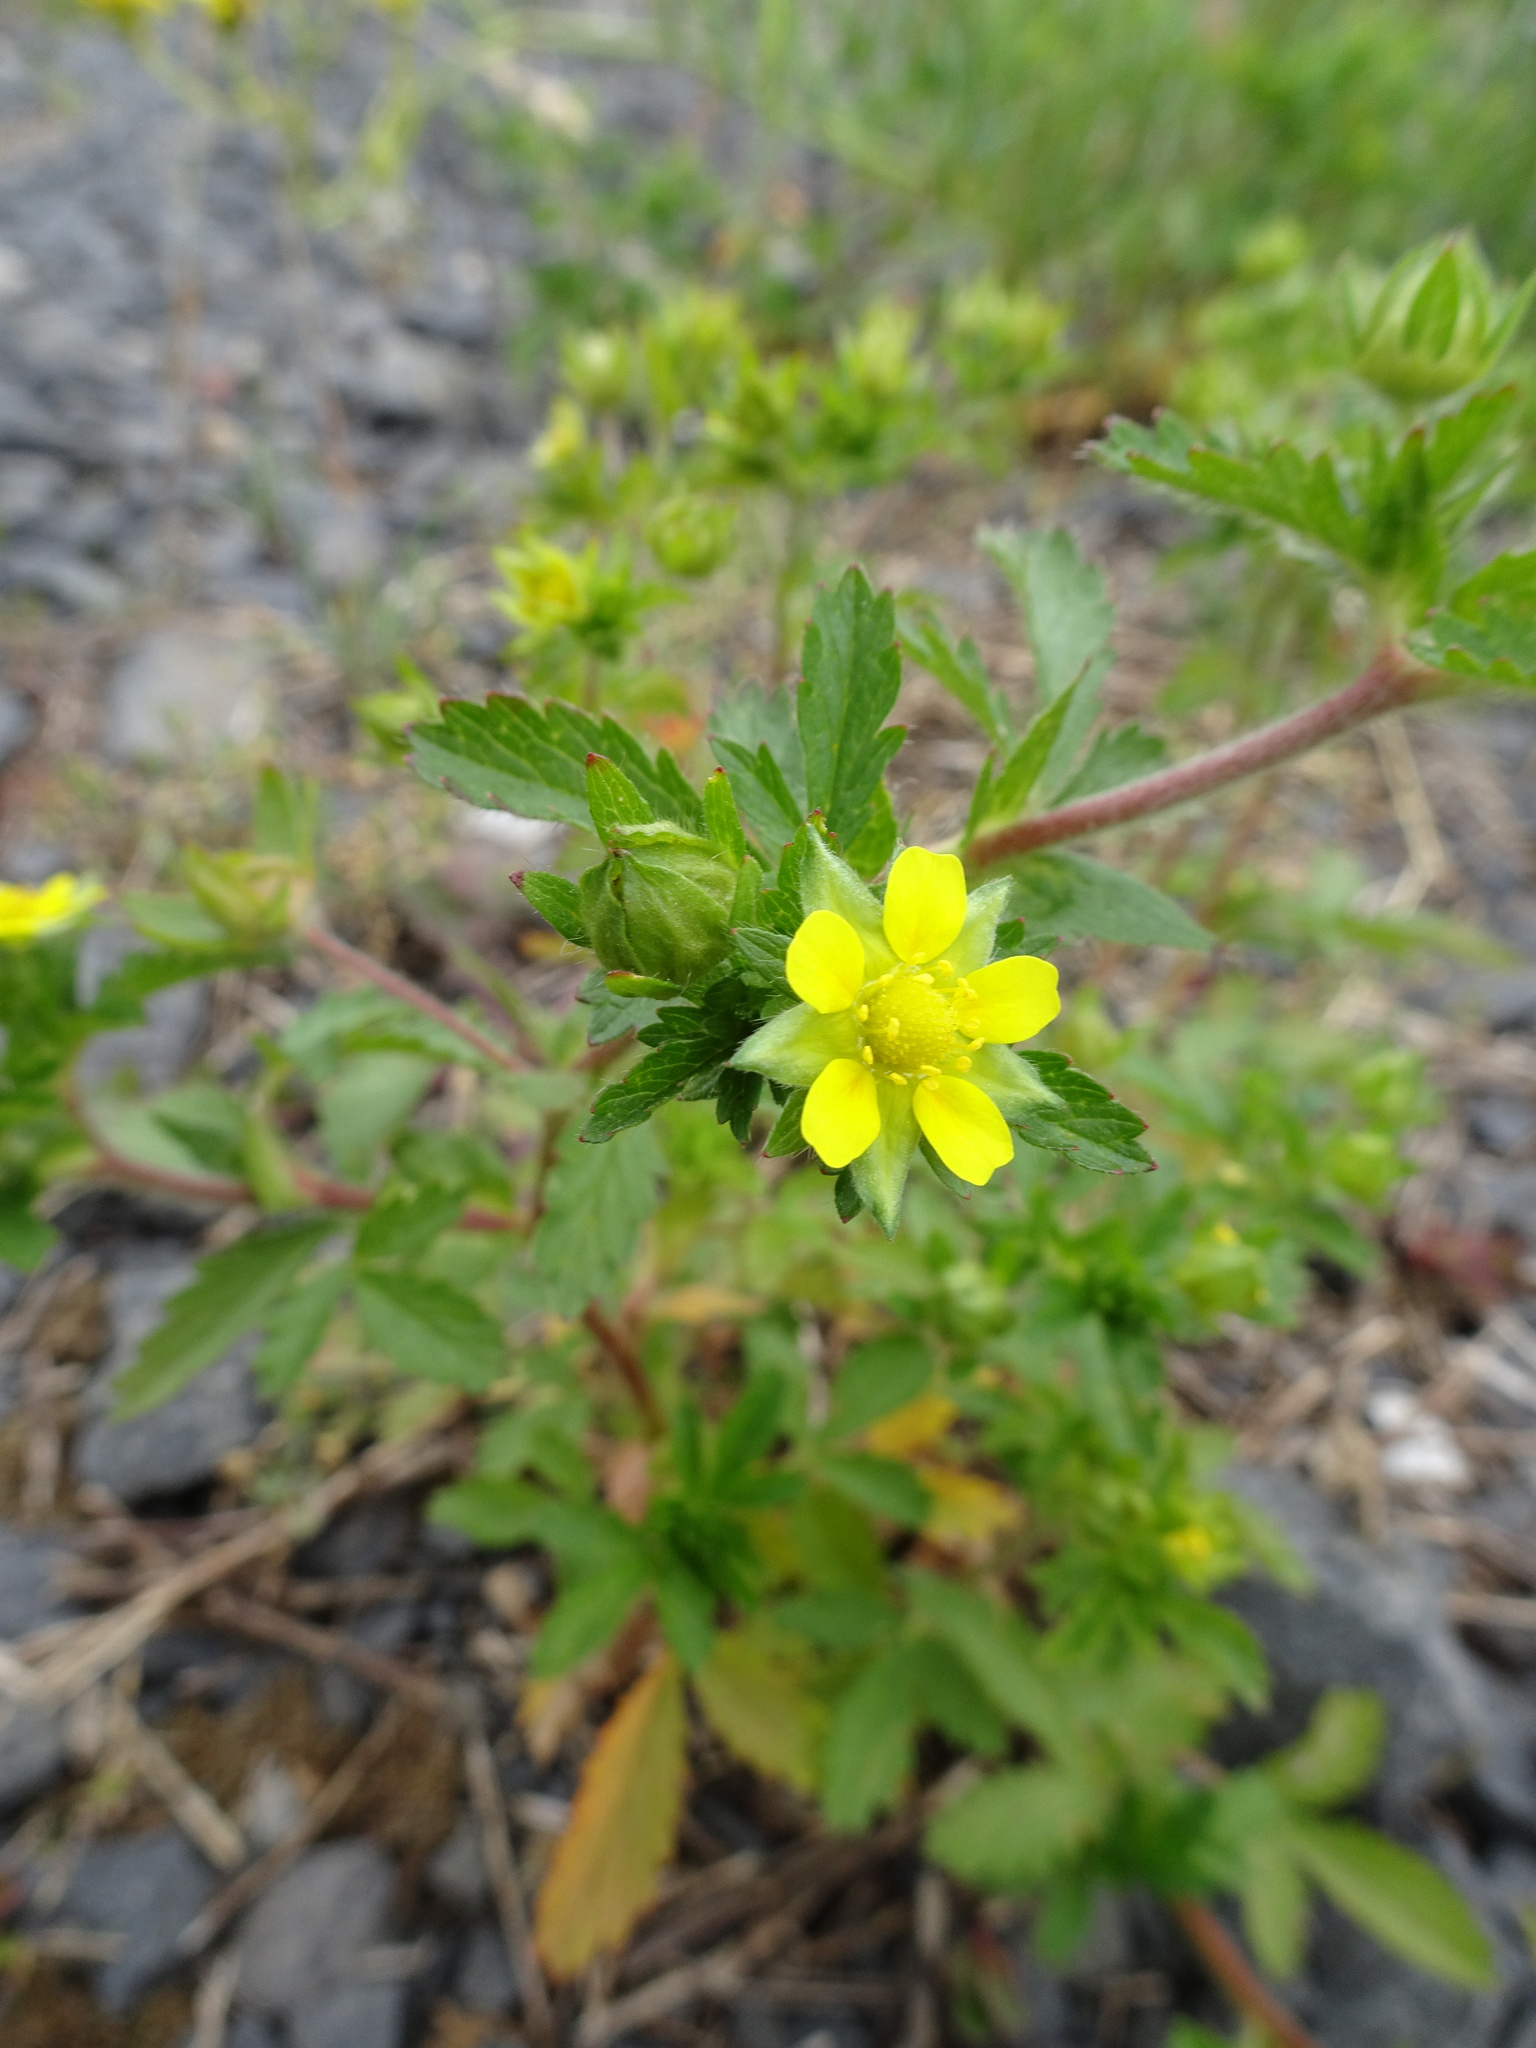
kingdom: Plantae
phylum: Tracheophyta
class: Magnoliopsida
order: Rosales
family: Rosaceae
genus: Potentilla
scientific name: Potentilla norvegica
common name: Ternate-leaved cinquefoil
